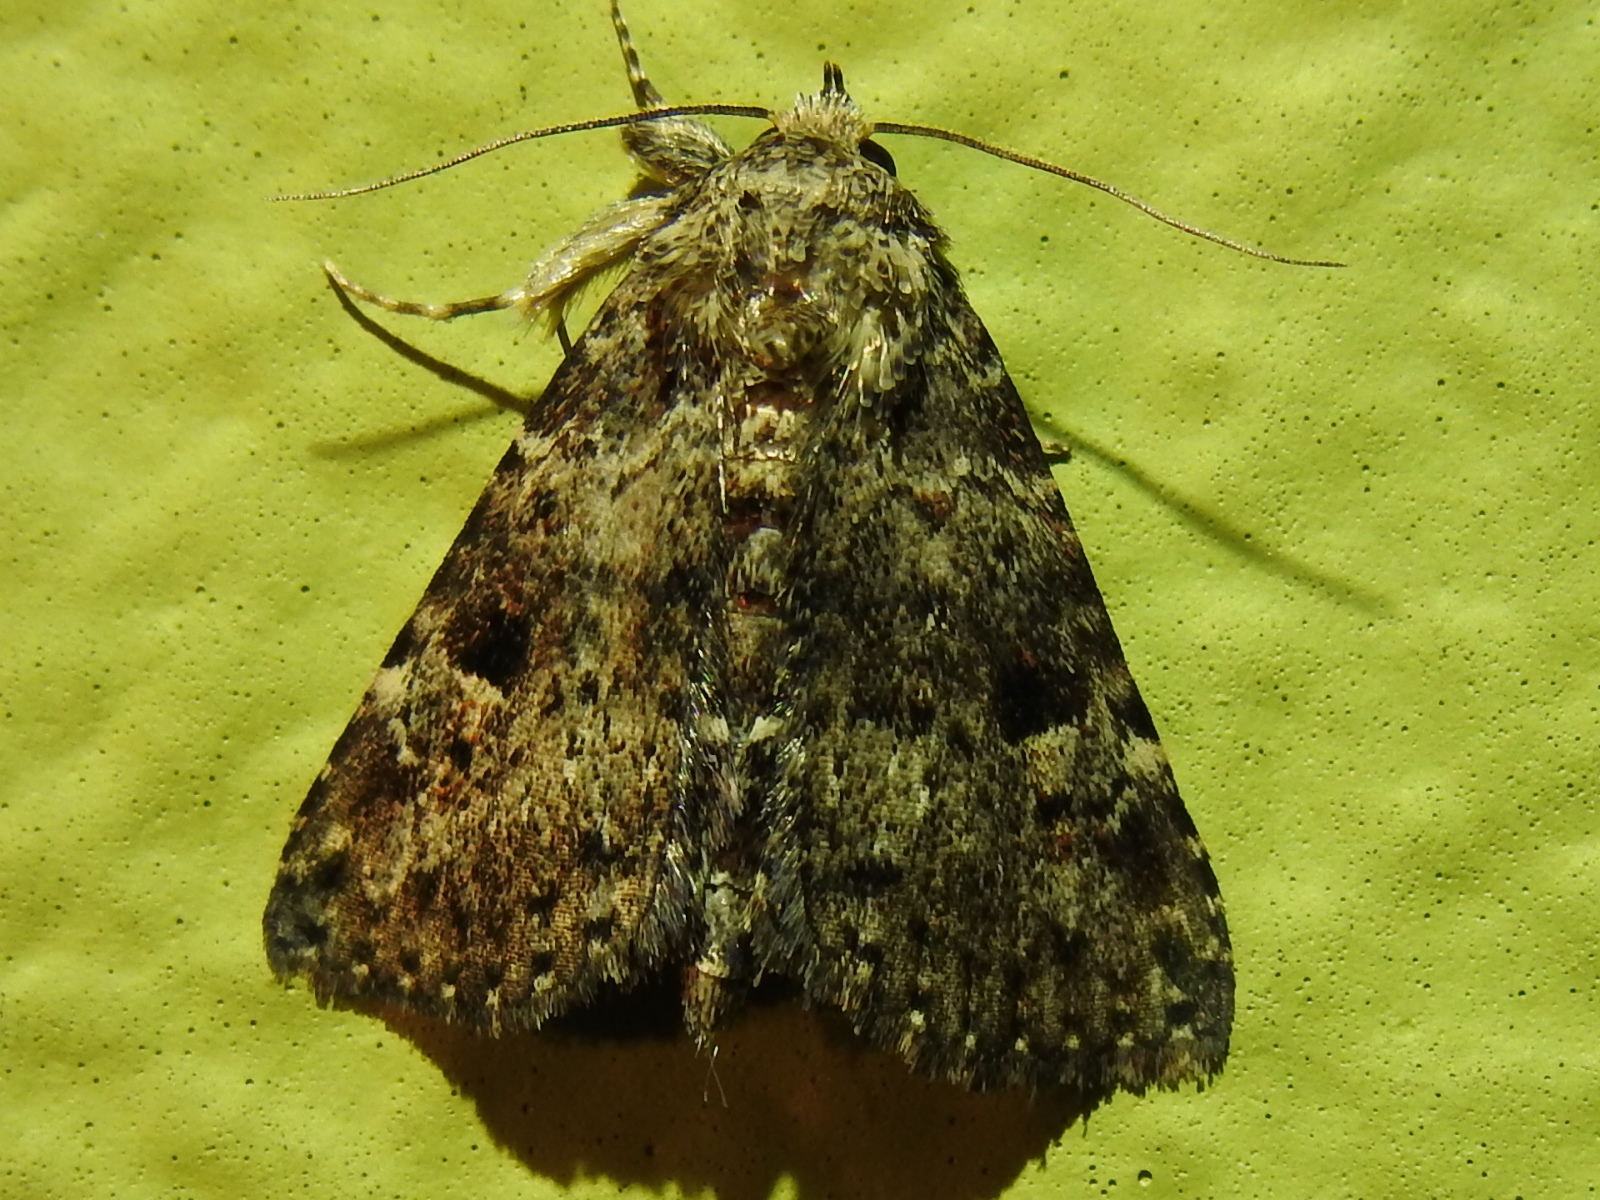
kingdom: Animalia
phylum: Arthropoda
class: Insecta
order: Lepidoptera
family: Erebidae
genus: Metalectra
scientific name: Metalectra discalis
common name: Common fungus moth
